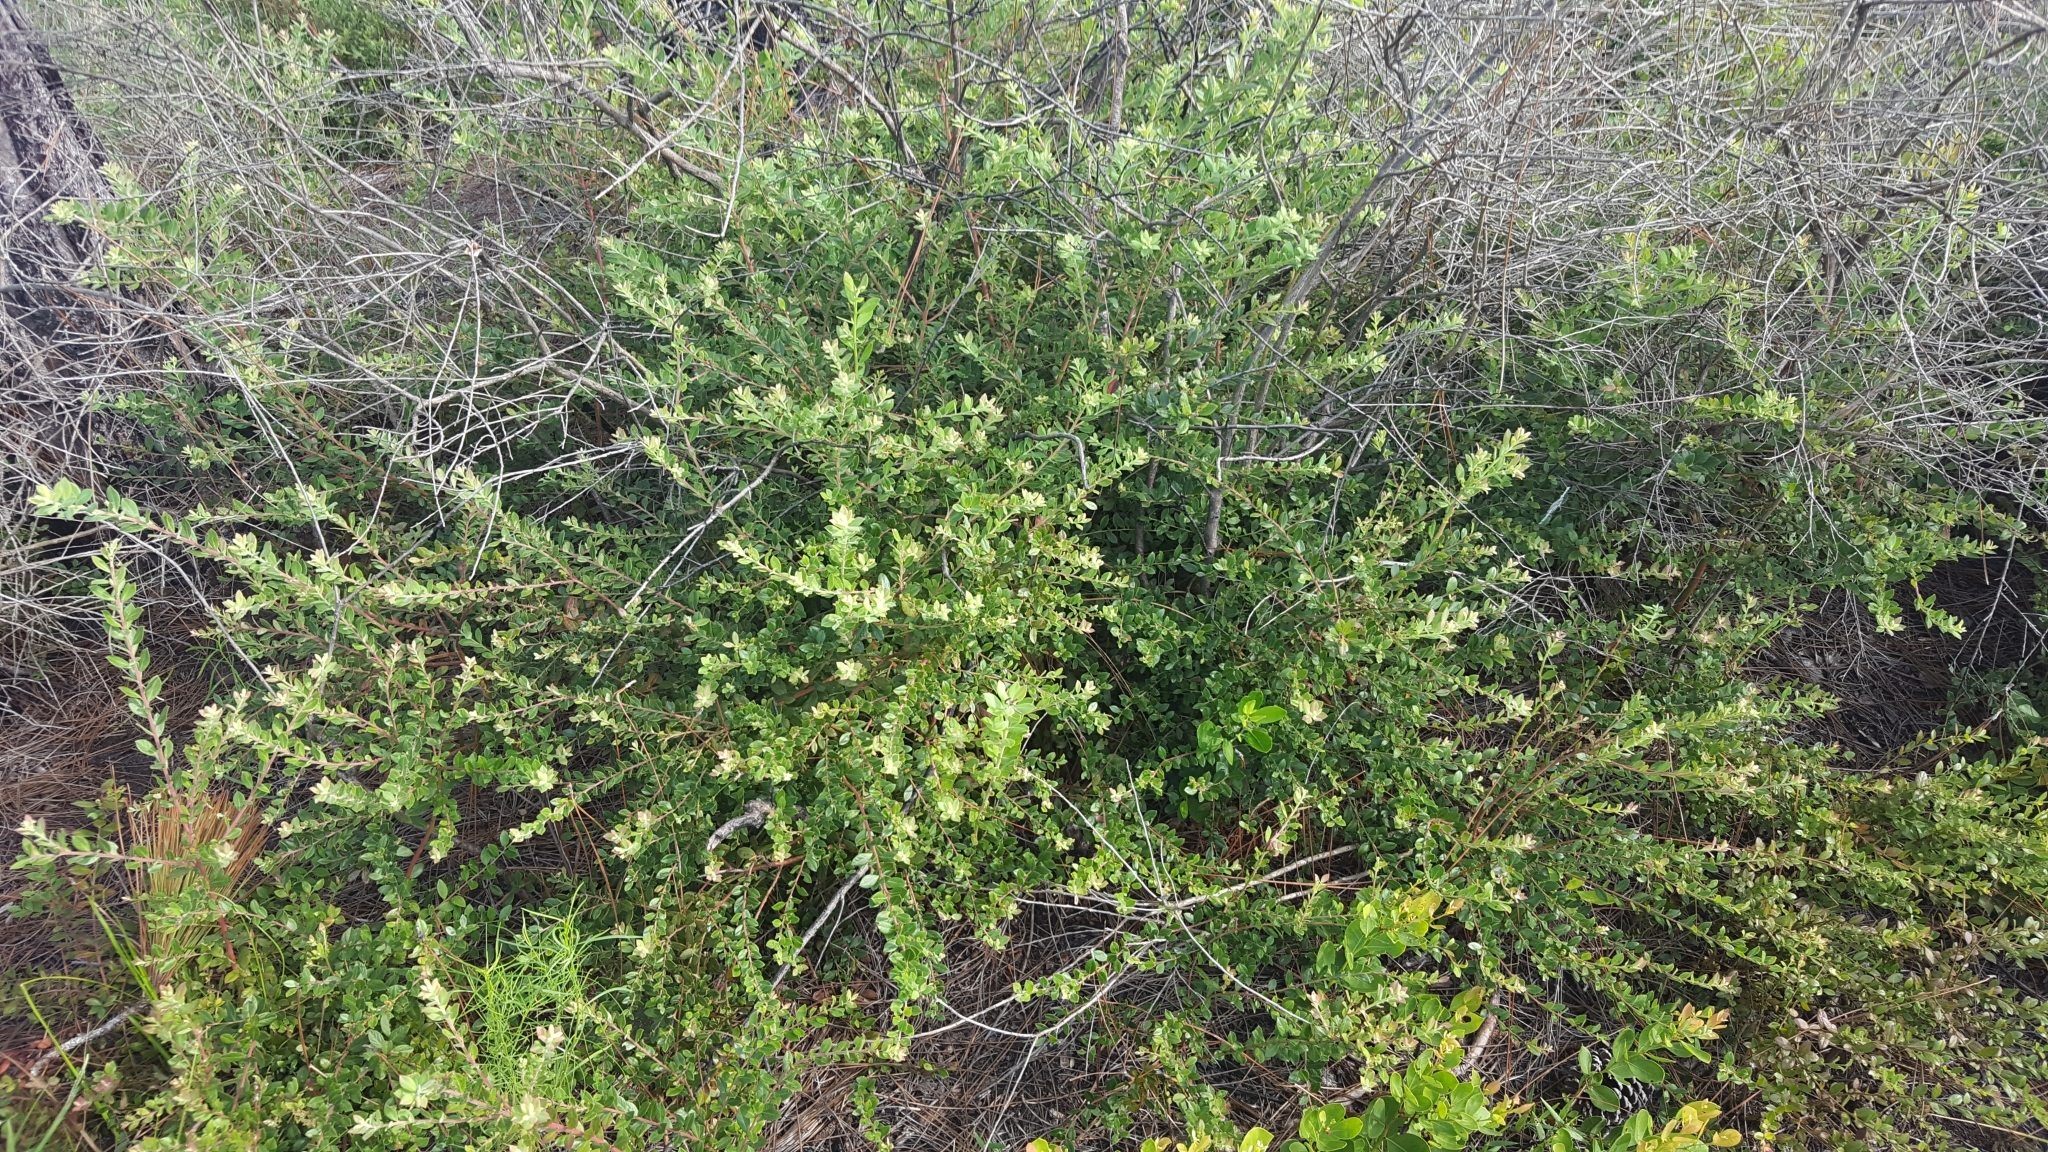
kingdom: Plantae
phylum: Tracheophyta
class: Magnoliopsida
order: Ericales
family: Ericaceae
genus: Vaccinium
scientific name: Vaccinium myrsinites
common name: Evergreen blueberry
